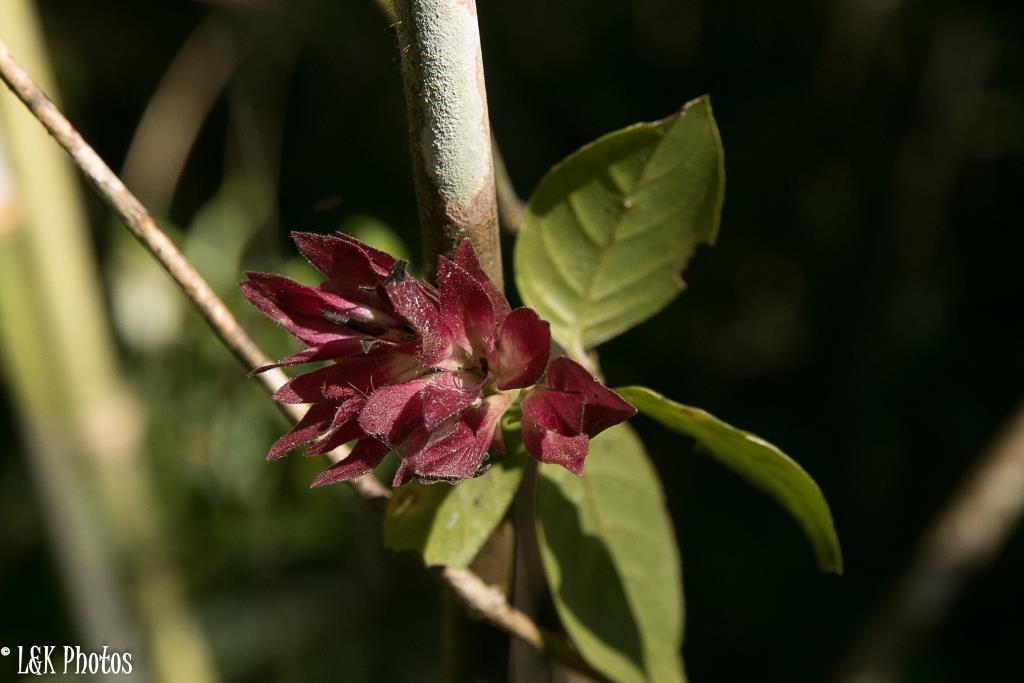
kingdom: Plantae
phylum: Tracheophyta
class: Magnoliopsida
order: Lamiales
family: Acanthaceae
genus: Hypoestes
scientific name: Hypoestes pulchra
